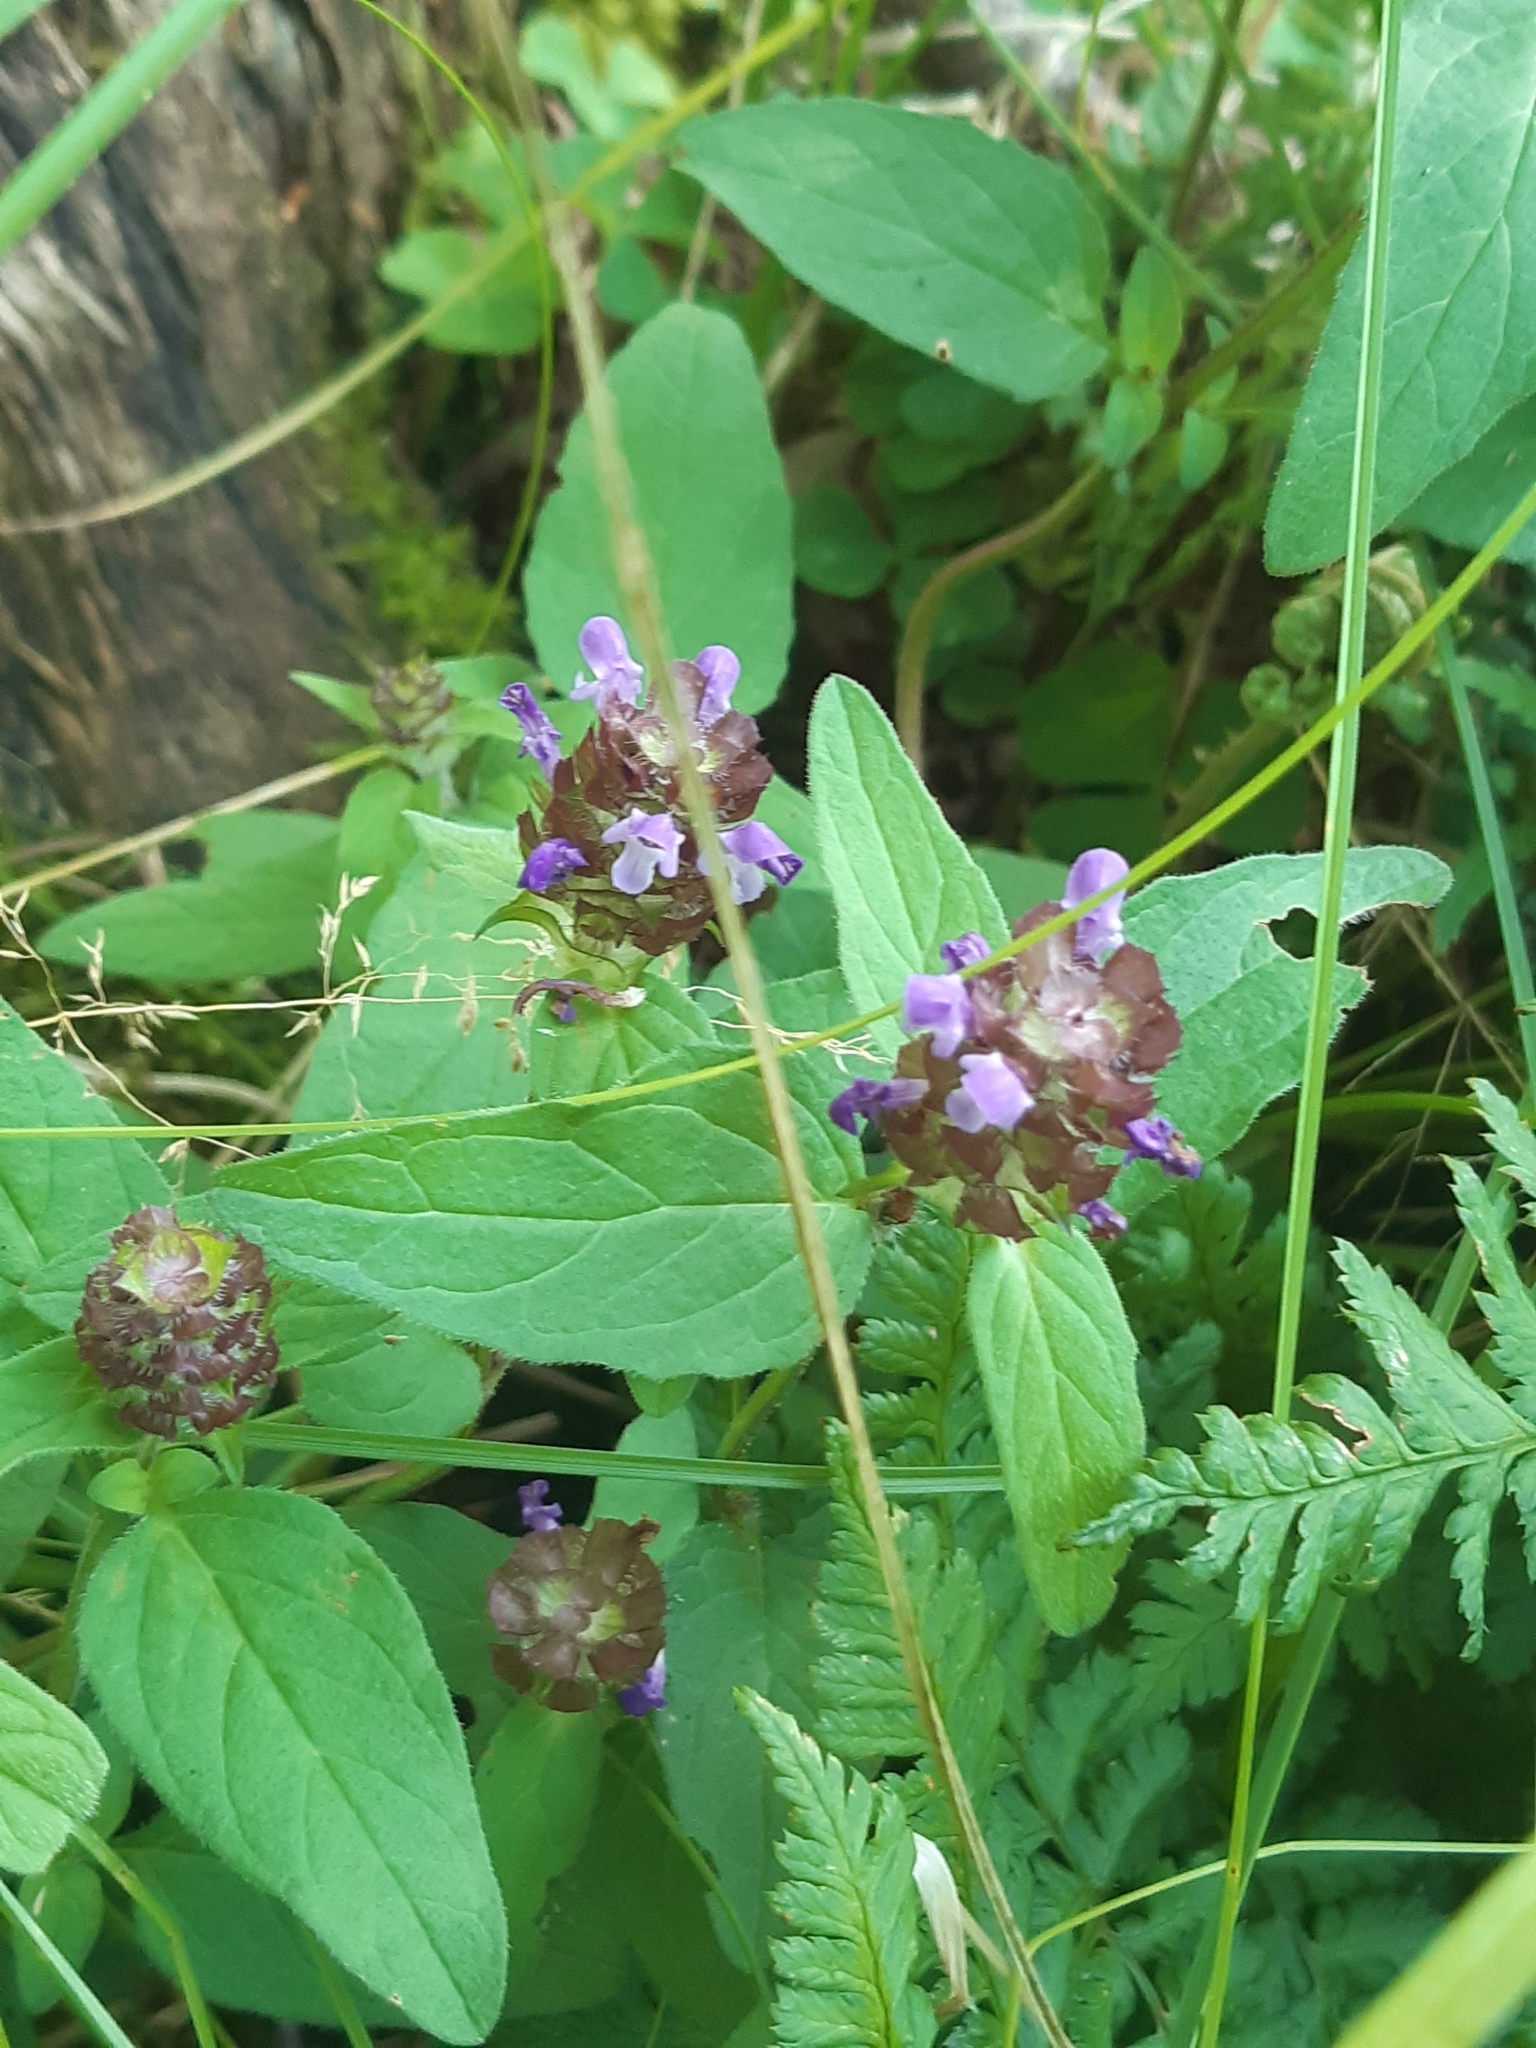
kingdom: Plantae
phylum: Tracheophyta
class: Magnoliopsida
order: Lamiales
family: Lamiaceae
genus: Prunella
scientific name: Prunella vulgaris
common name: Heal-all
